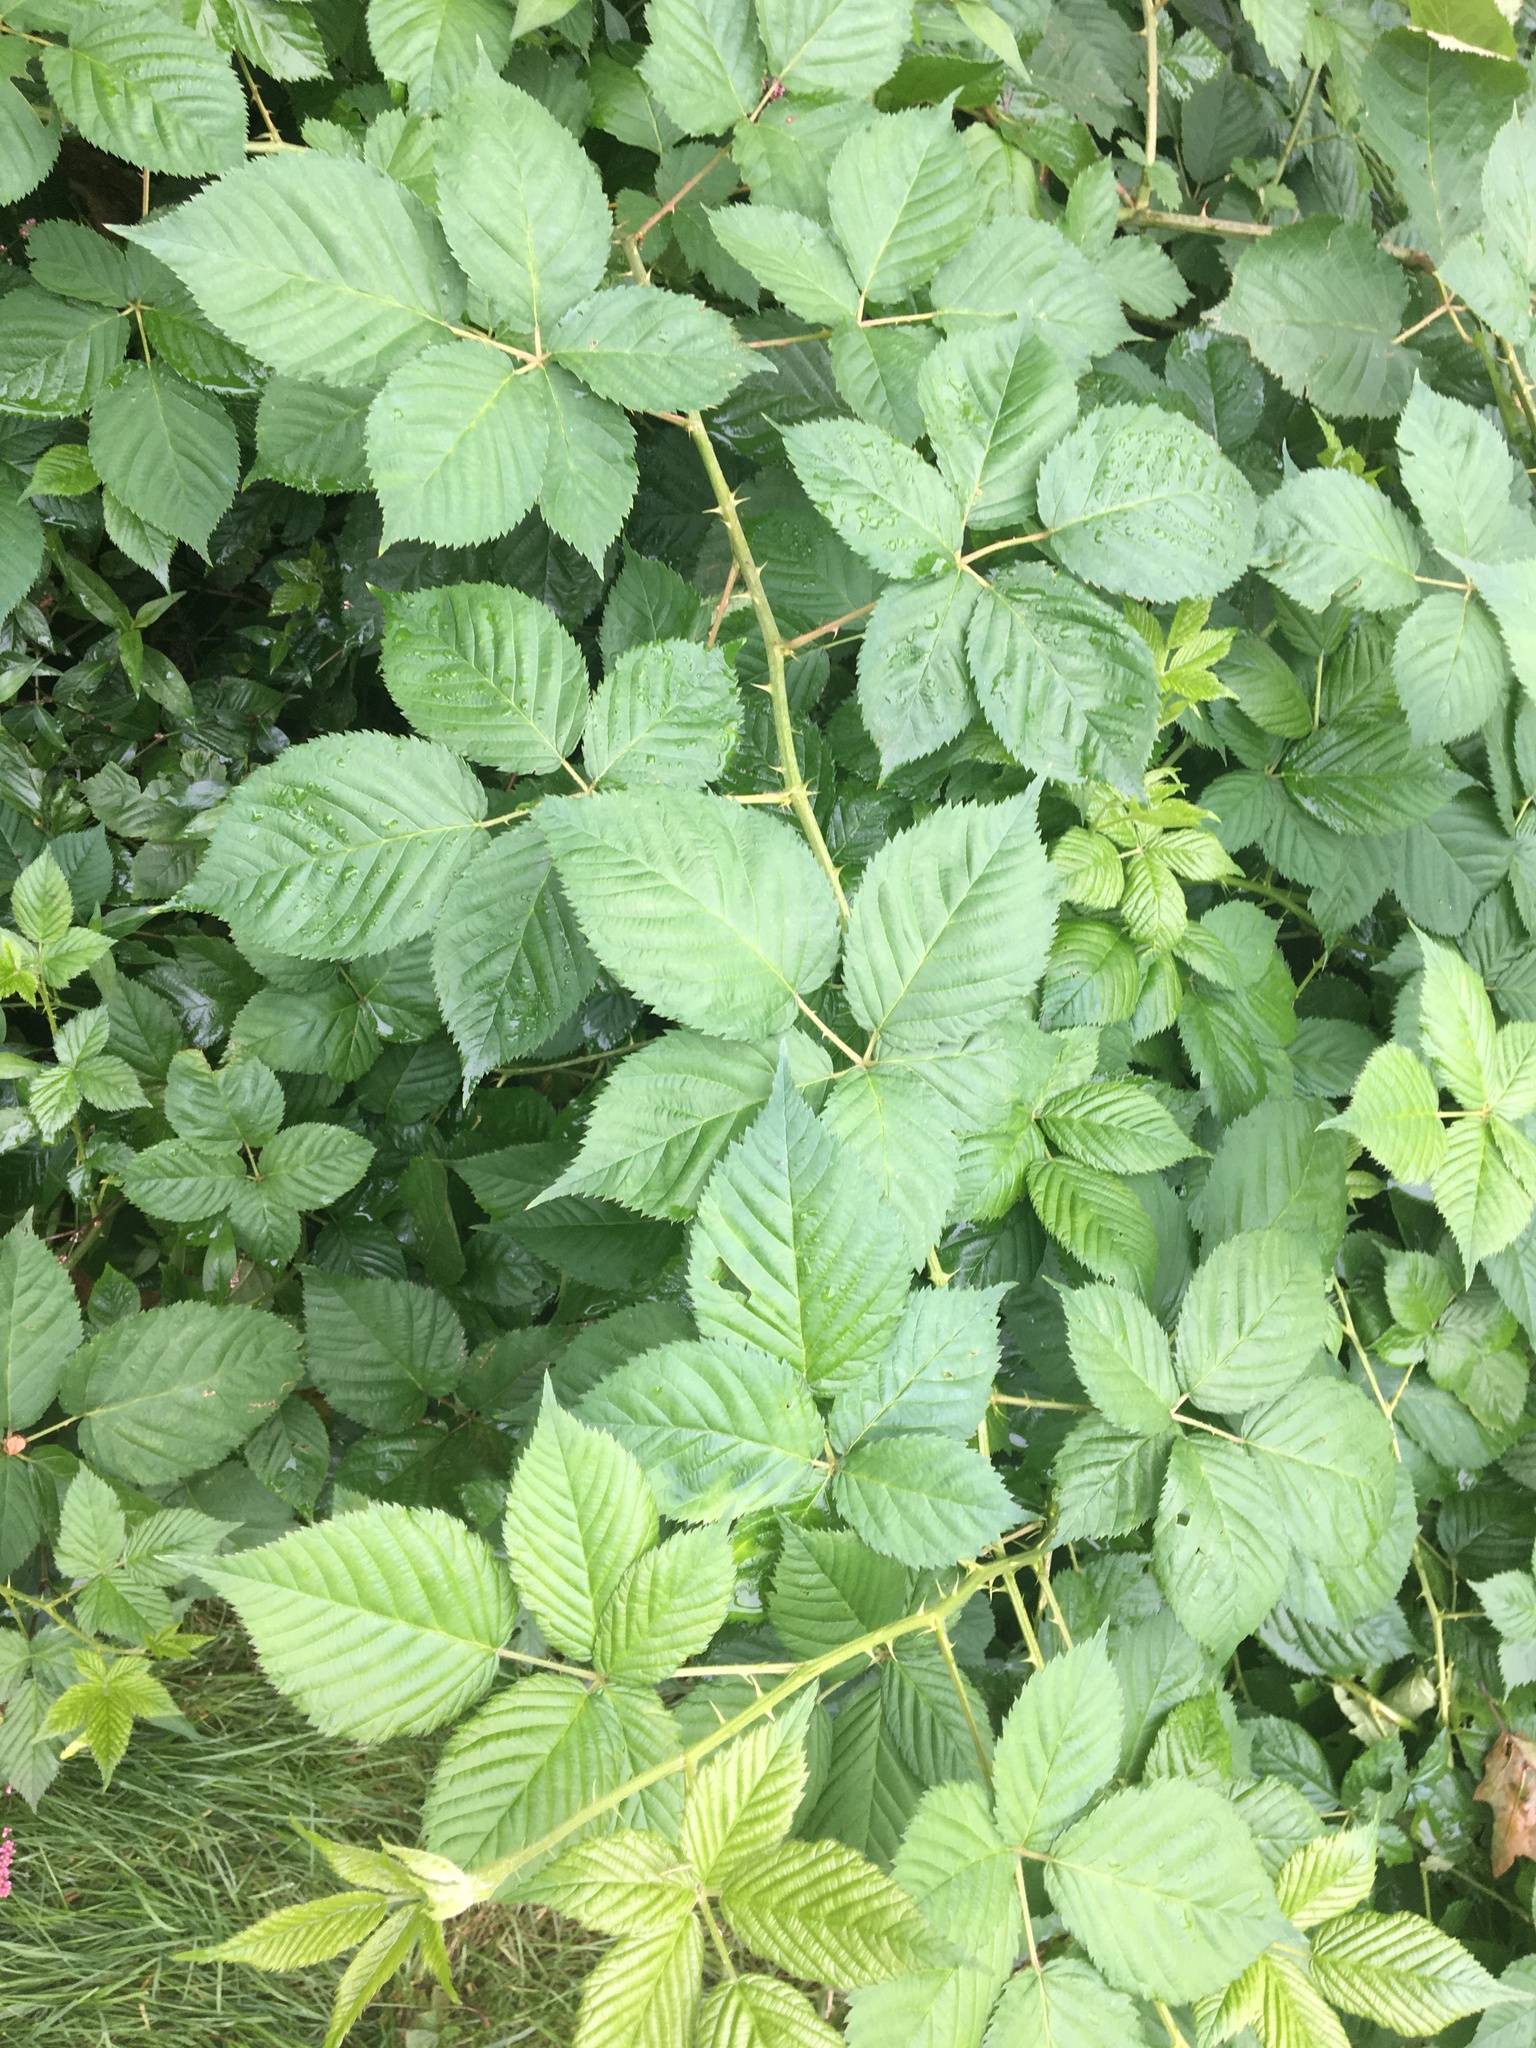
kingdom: Plantae
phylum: Tracheophyta
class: Magnoliopsida
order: Rosales
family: Rosaceae
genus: Rubus
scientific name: Rubus
